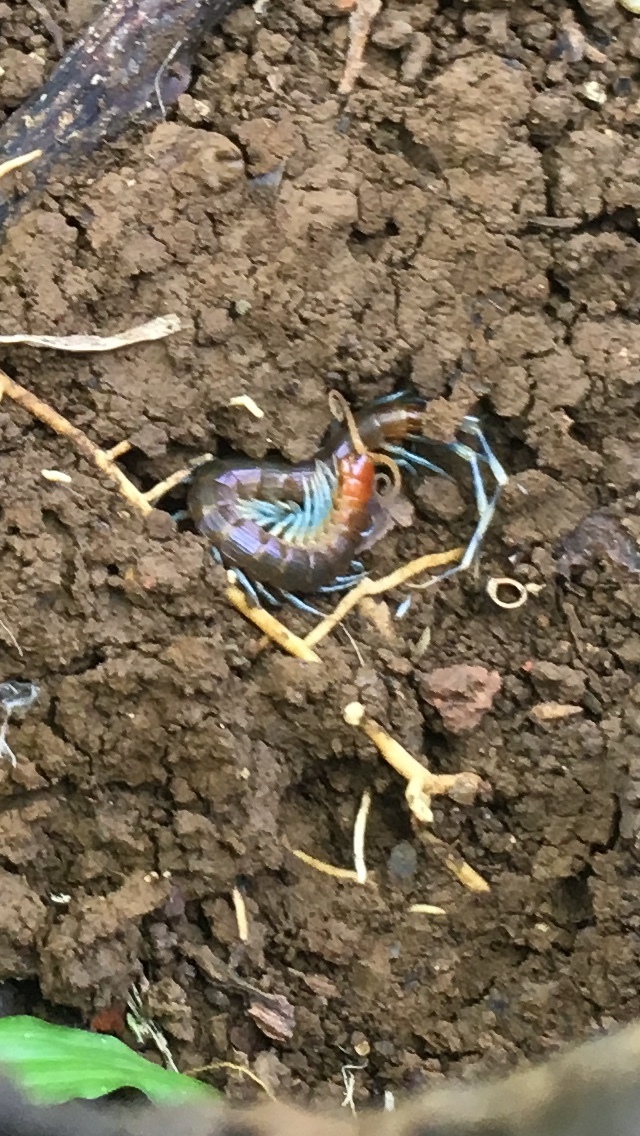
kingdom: Animalia
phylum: Arthropoda
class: Chilopoda
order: Scolopendromorpha
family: Scolopendridae
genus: Otostigmus
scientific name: Otostigmus scaber
